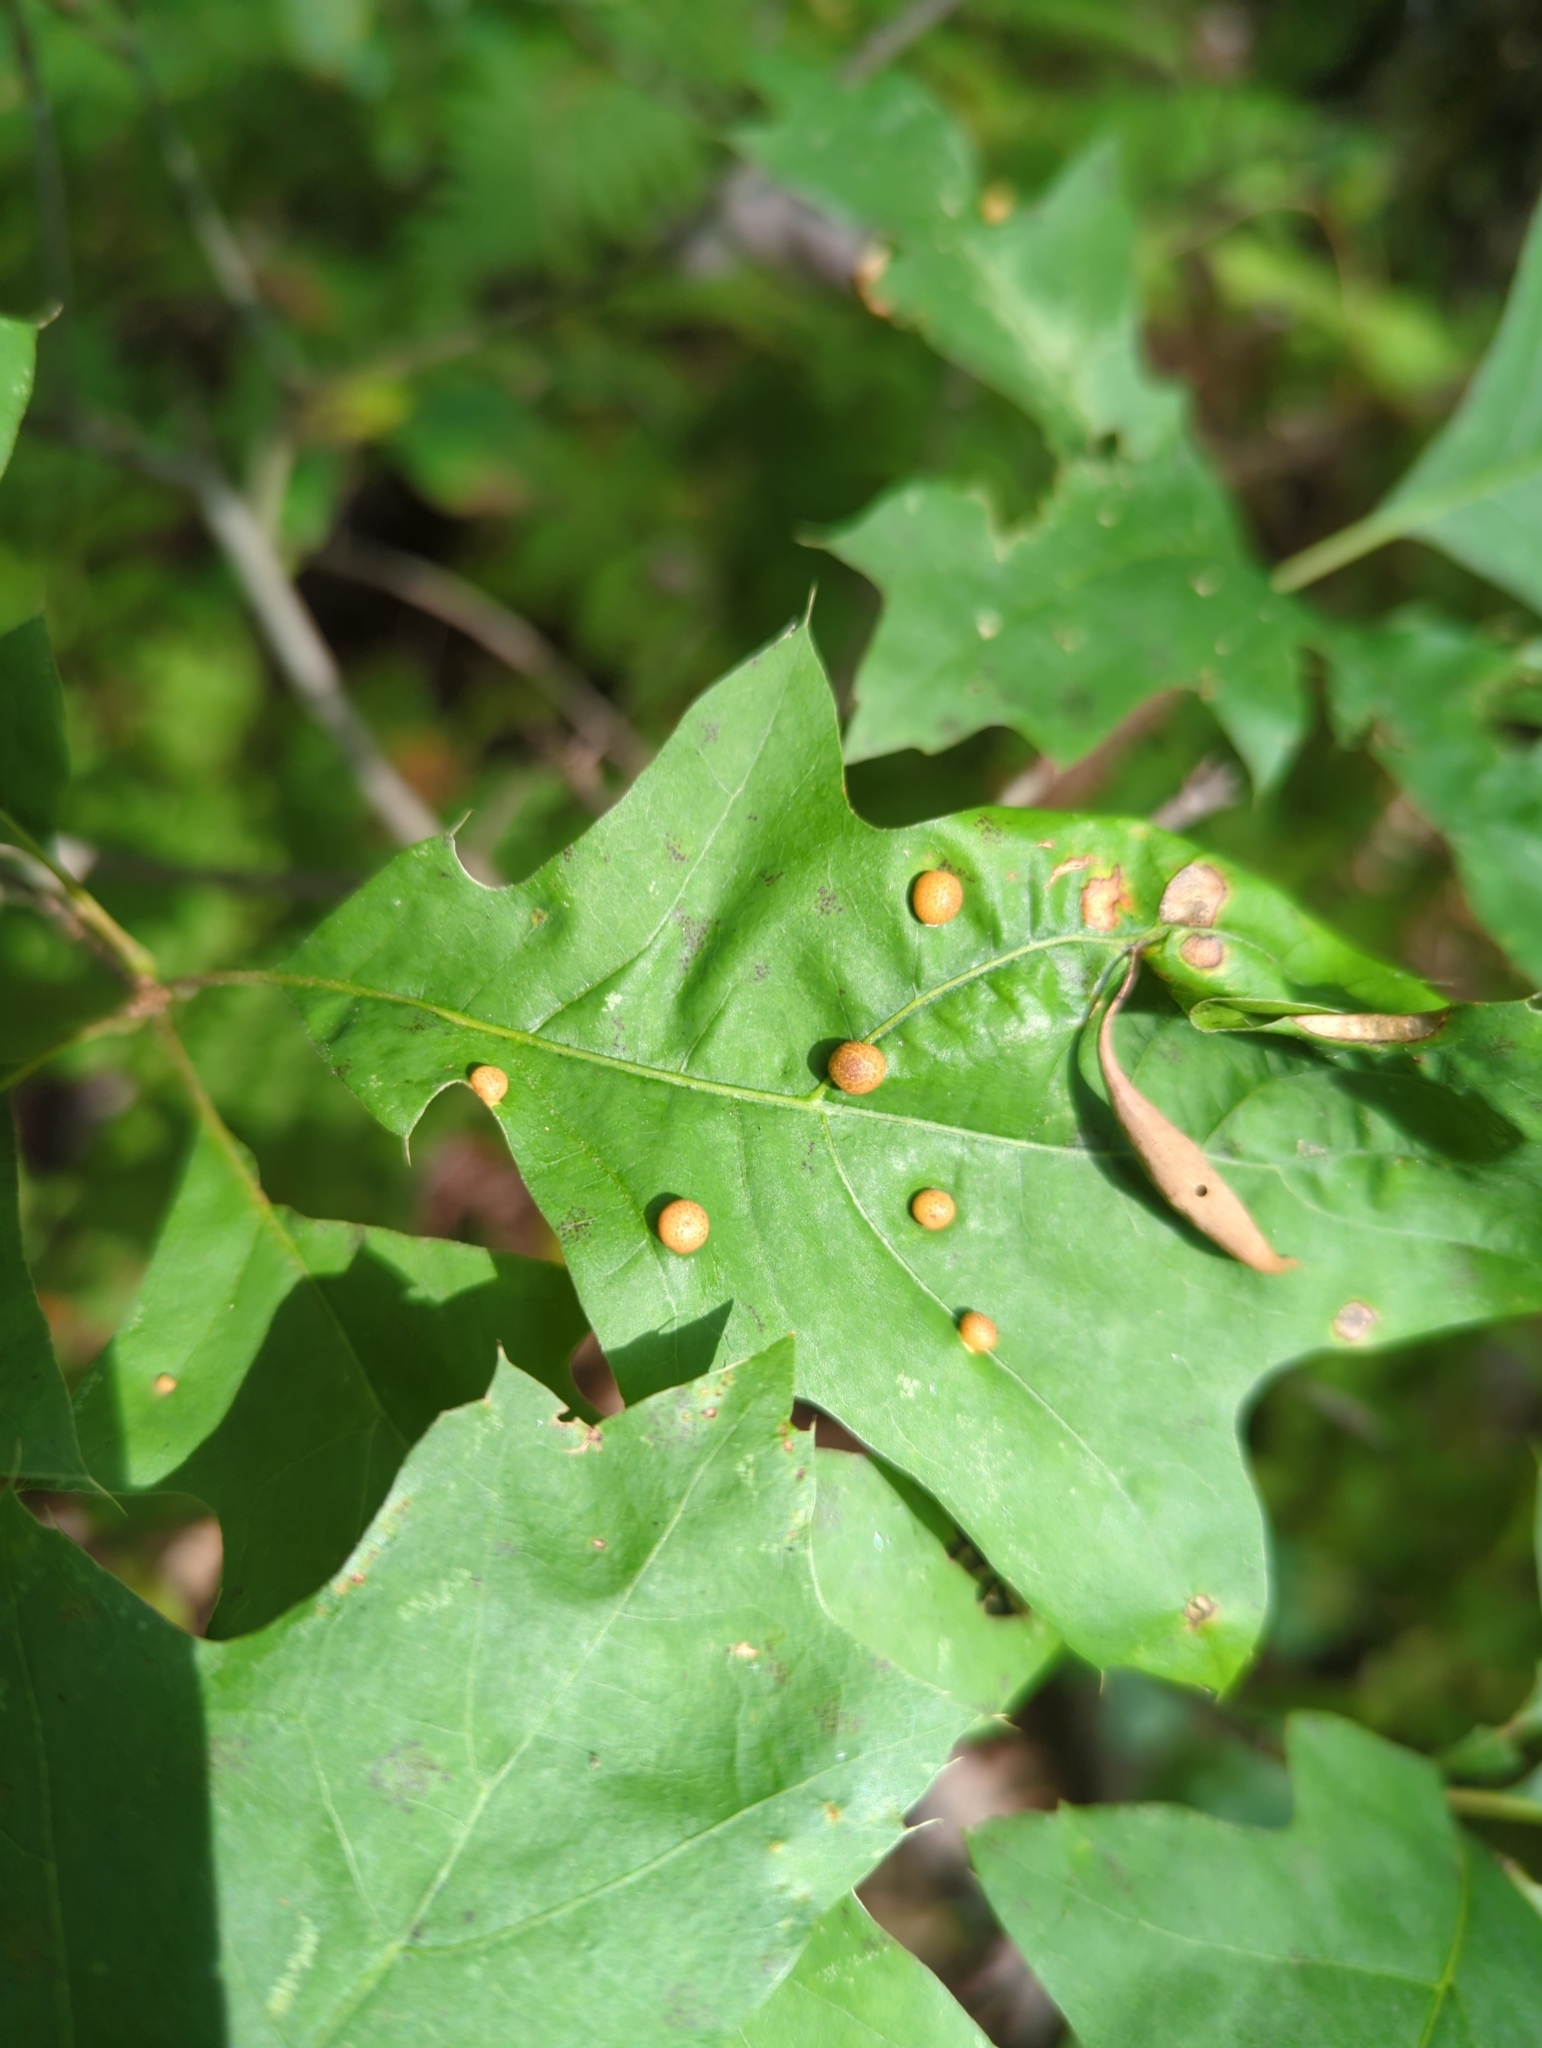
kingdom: Animalia
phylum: Arthropoda
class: Insecta
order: Diptera
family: Cecidomyiidae
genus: Polystepha
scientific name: Polystepha pilulae
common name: Oak leaf gall midge
